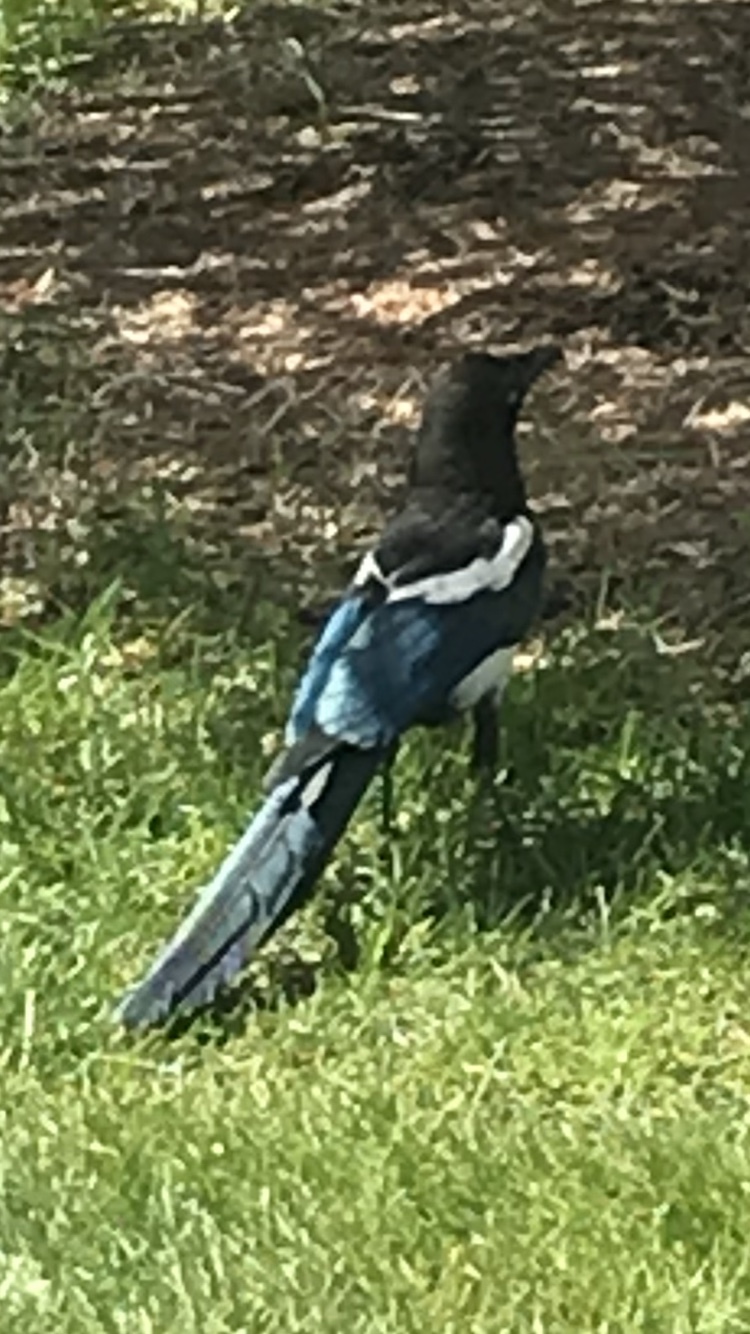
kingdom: Animalia
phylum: Chordata
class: Aves
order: Passeriformes
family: Corvidae
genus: Pica
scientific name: Pica hudsonia
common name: Black-billed magpie
